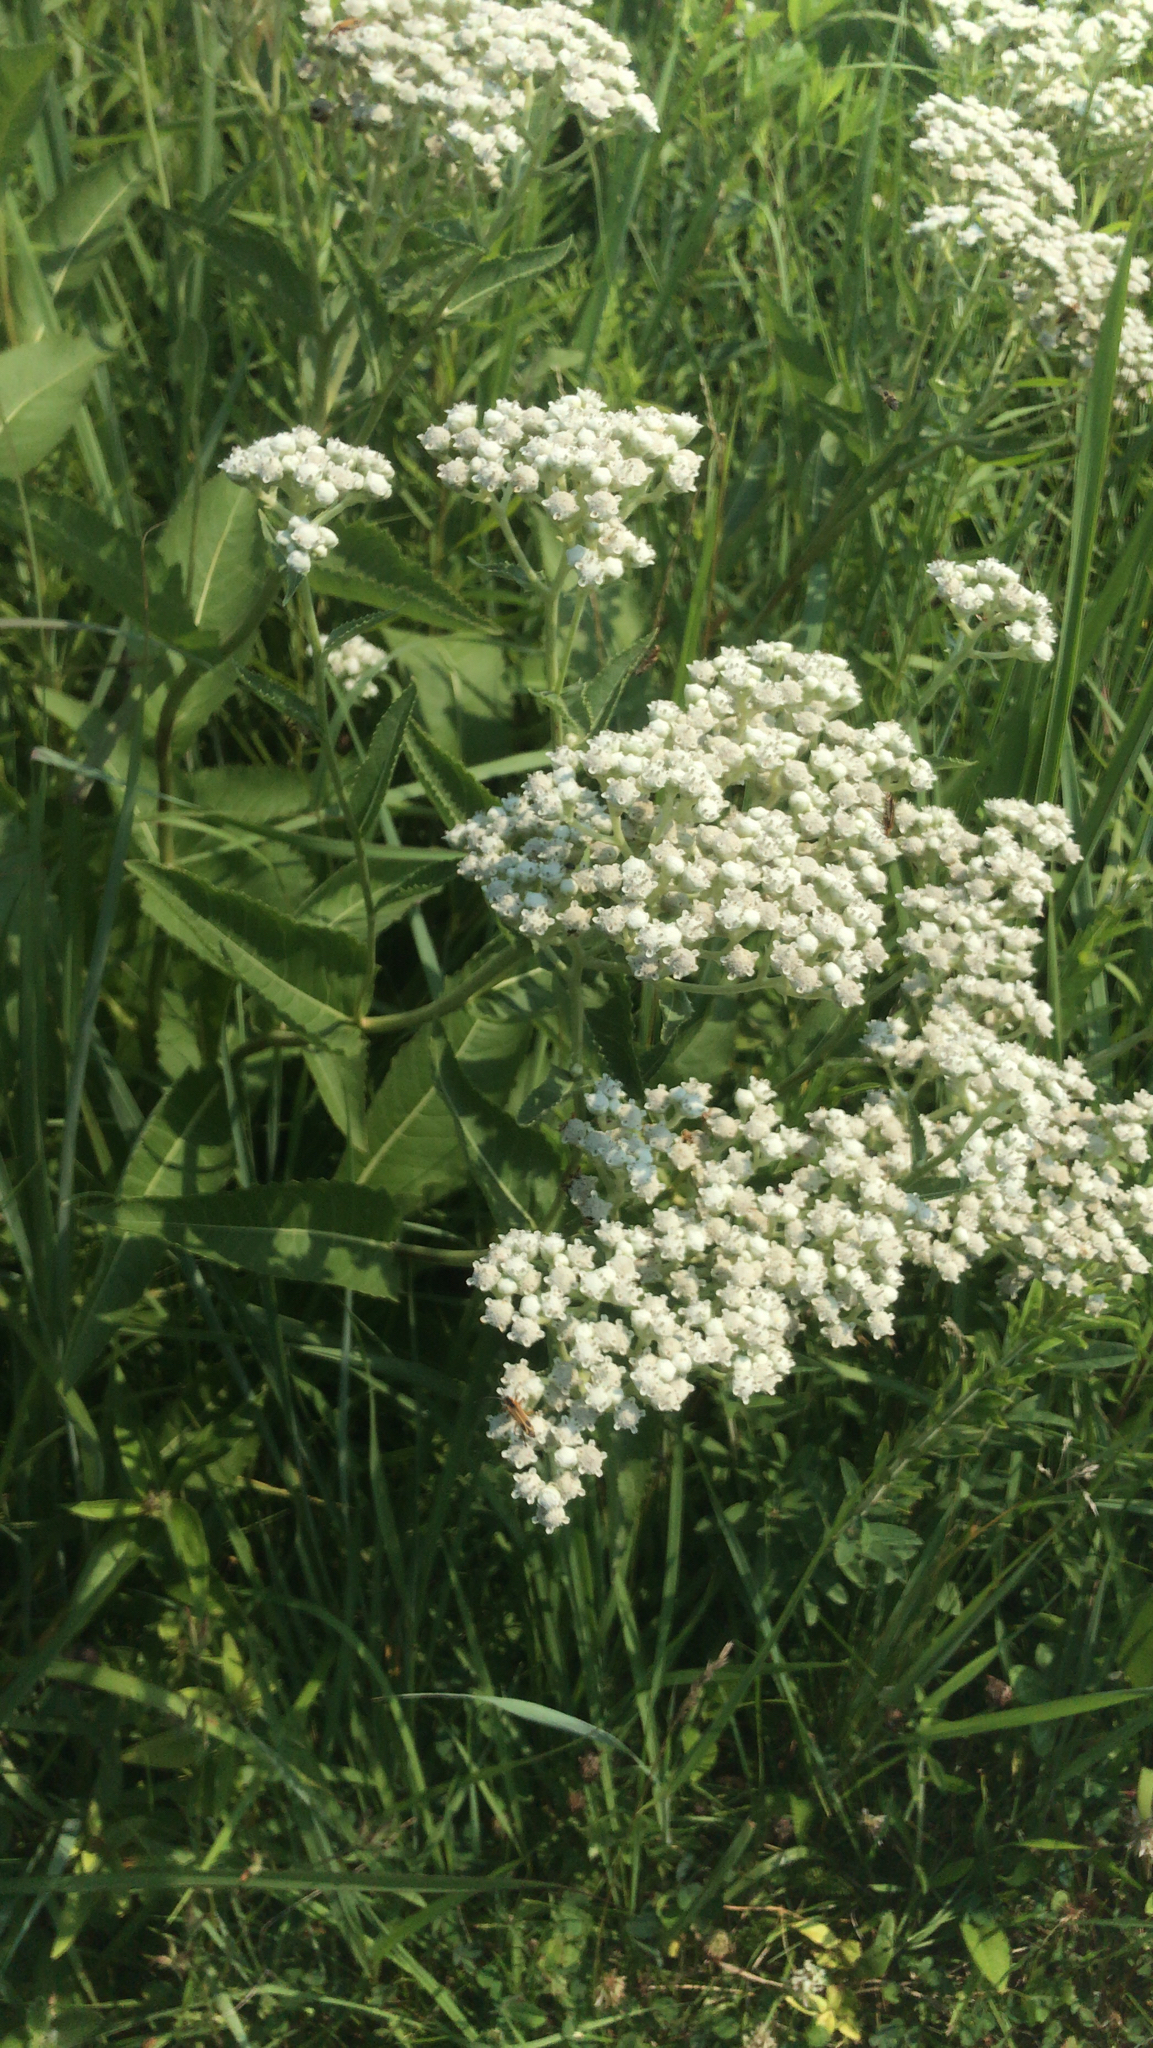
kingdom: Plantae
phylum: Tracheophyta
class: Magnoliopsida
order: Asterales
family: Asteraceae
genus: Parthenium
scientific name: Parthenium integrifolium
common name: American feverfew
